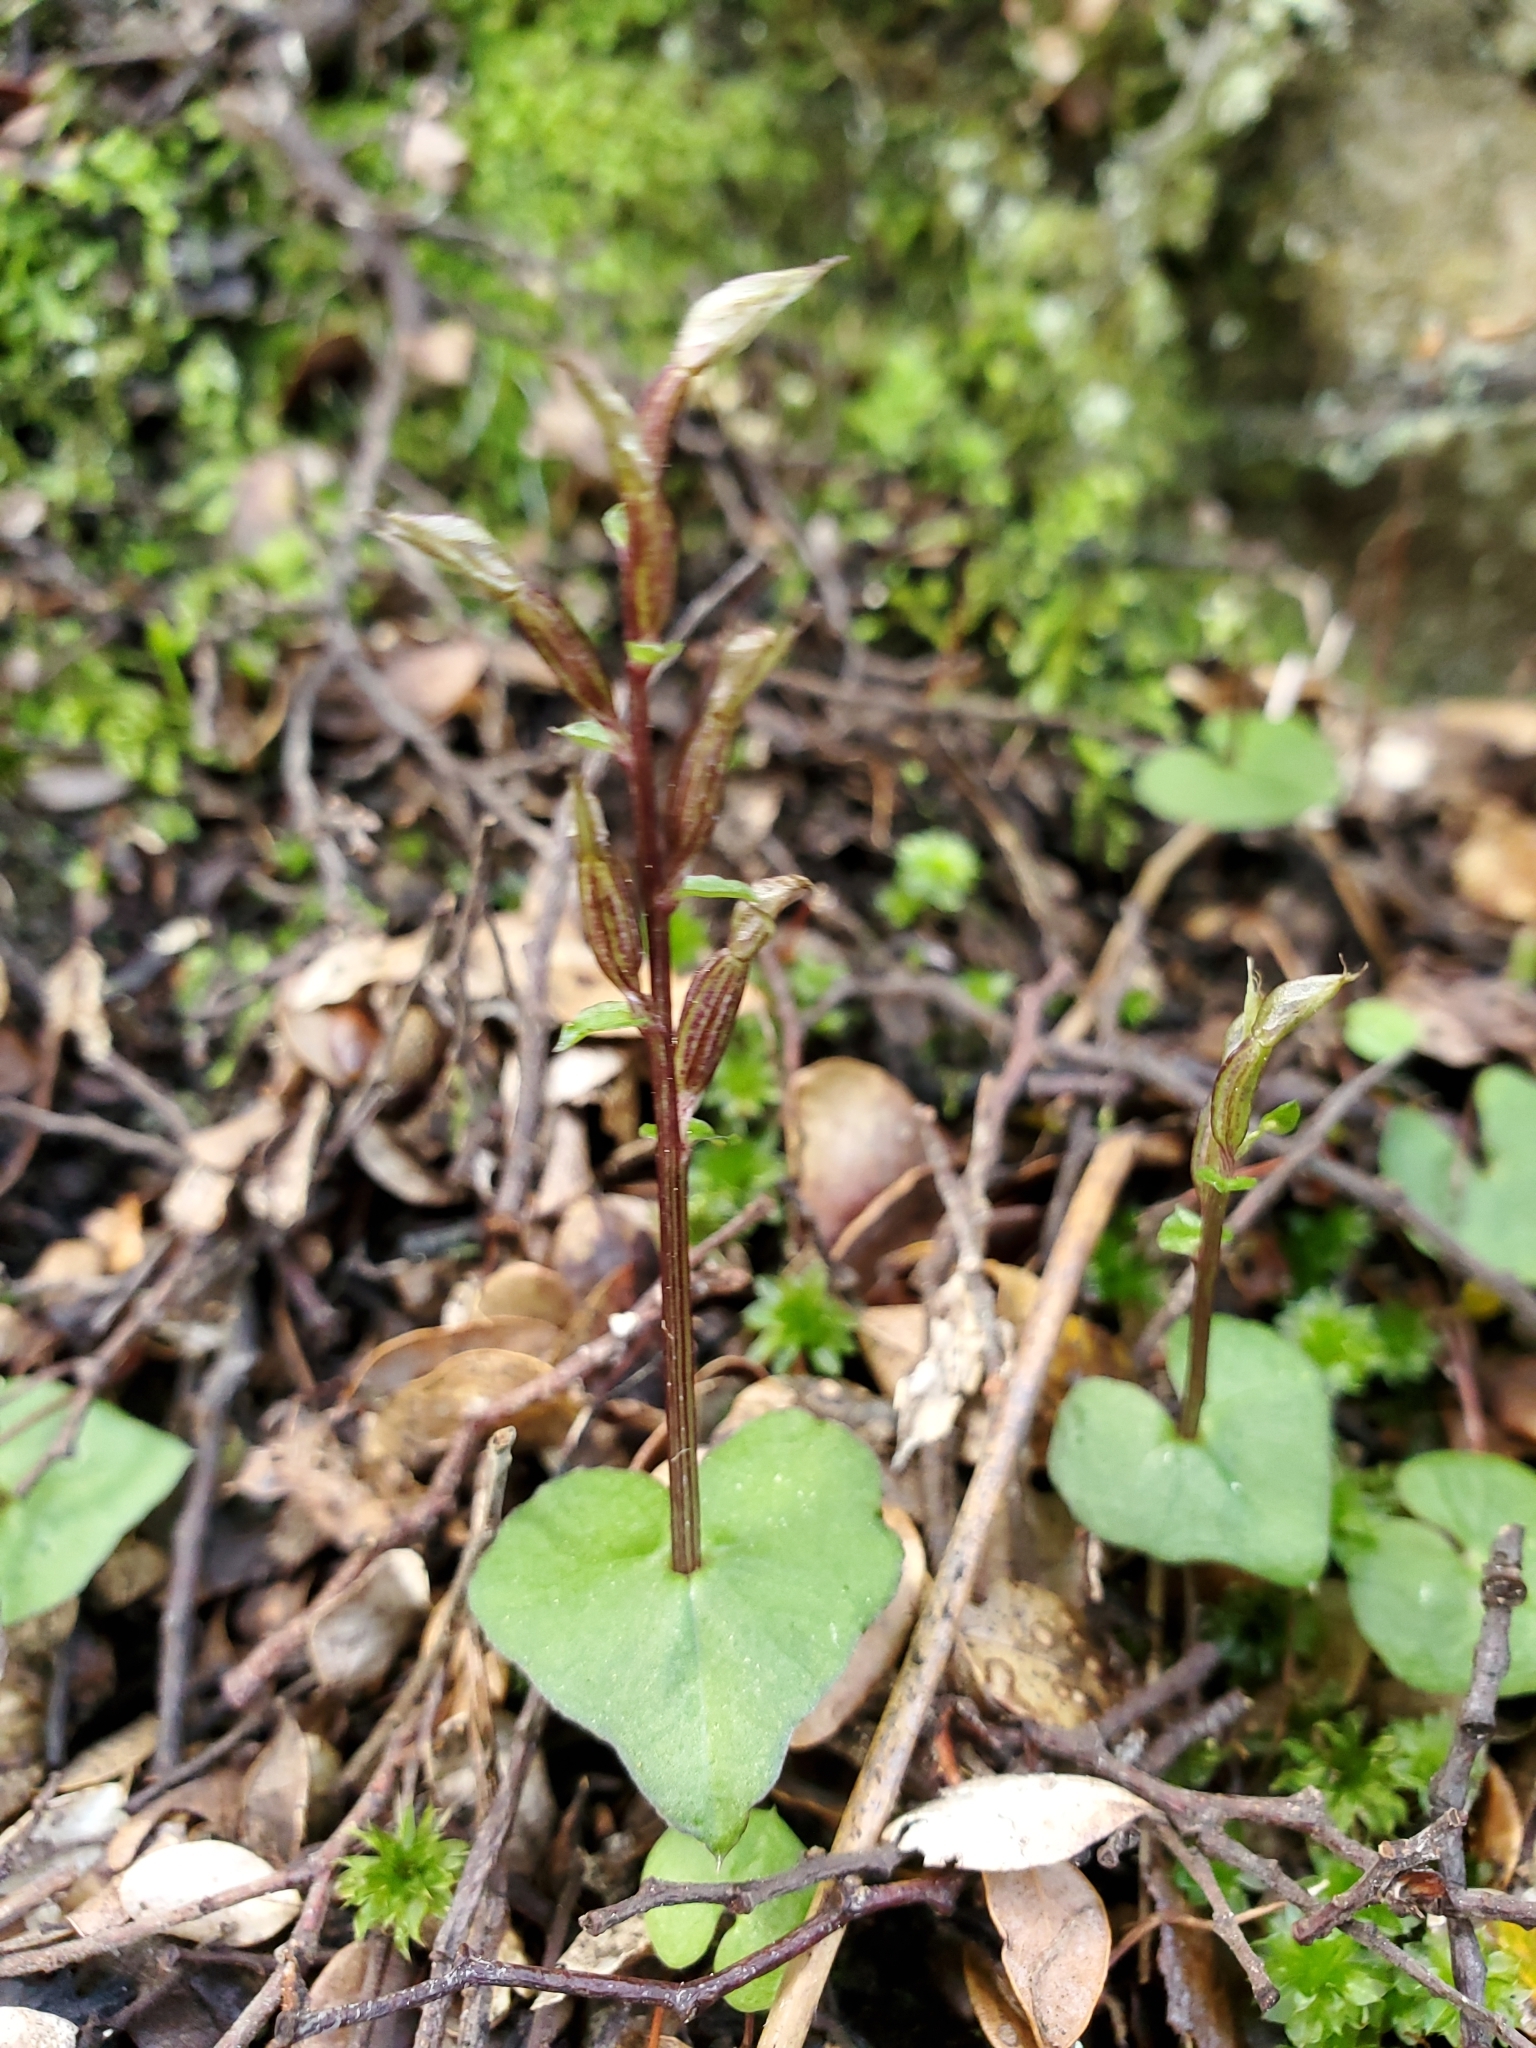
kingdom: Plantae
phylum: Tracheophyta
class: Liliopsida
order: Asparagales
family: Orchidaceae
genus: Acianthus
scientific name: Acianthus sinclairii
